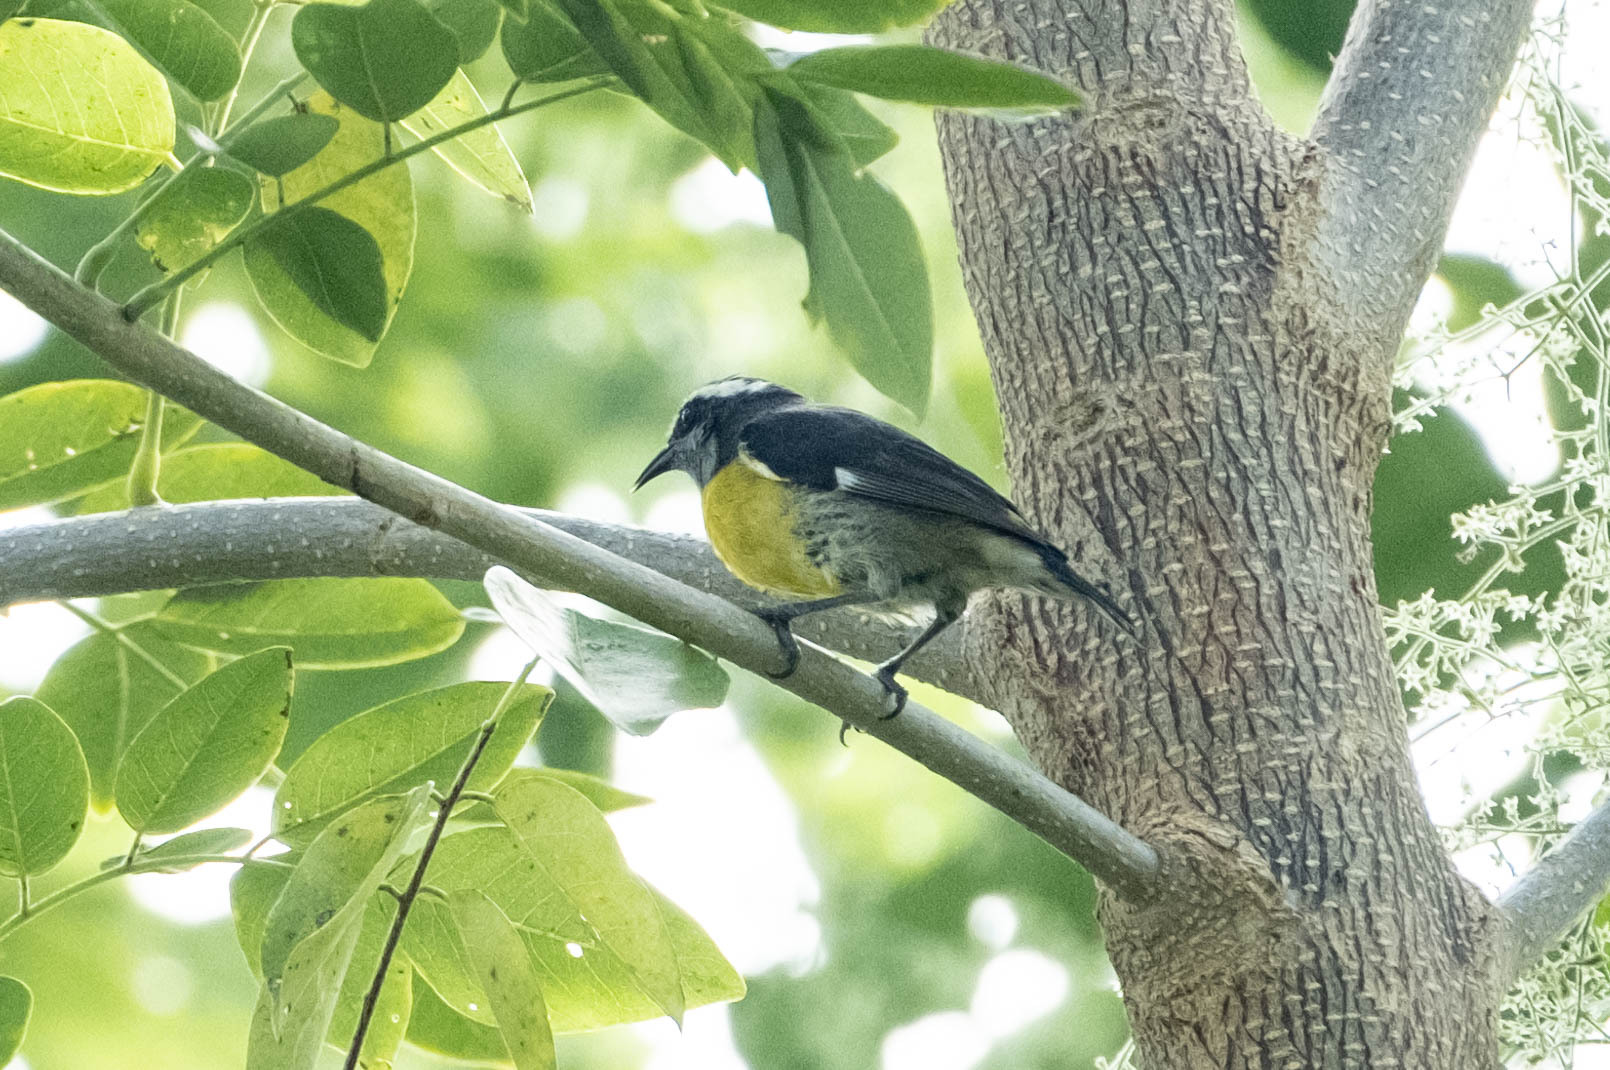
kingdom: Animalia
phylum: Chordata
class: Aves
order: Passeriformes
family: Thraupidae
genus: Coereba
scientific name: Coereba flaveola
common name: Bananaquit
